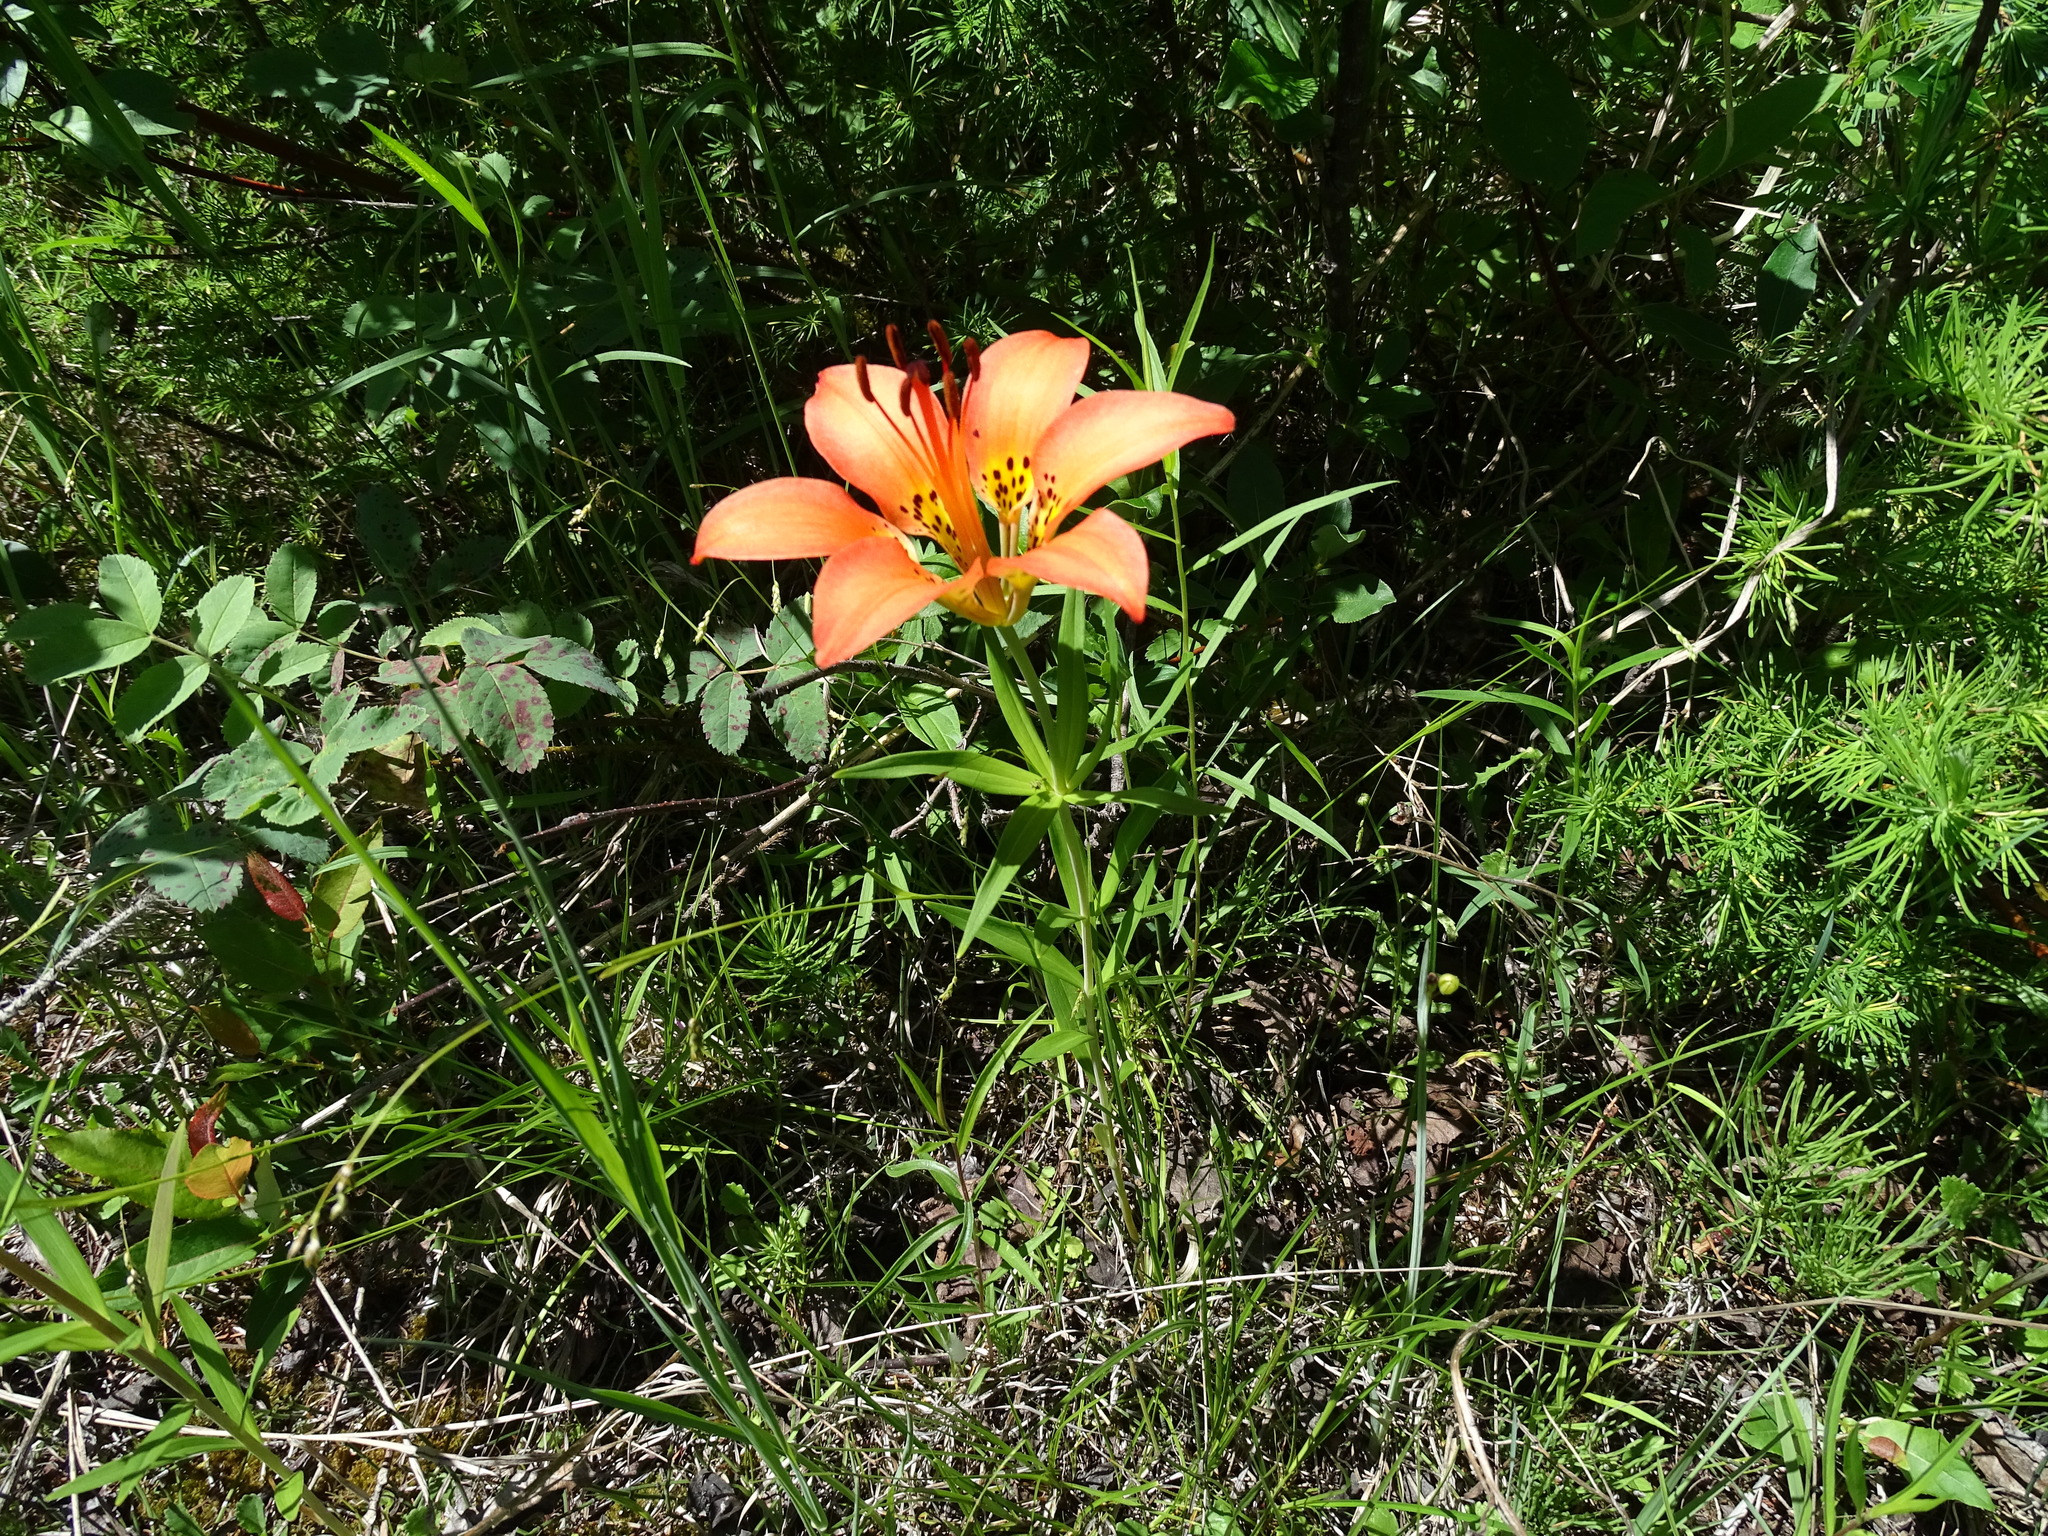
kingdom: Plantae
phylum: Tracheophyta
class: Liliopsida
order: Liliales
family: Liliaceae
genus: Lilium
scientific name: Lilium philadelphicum
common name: Red lily
